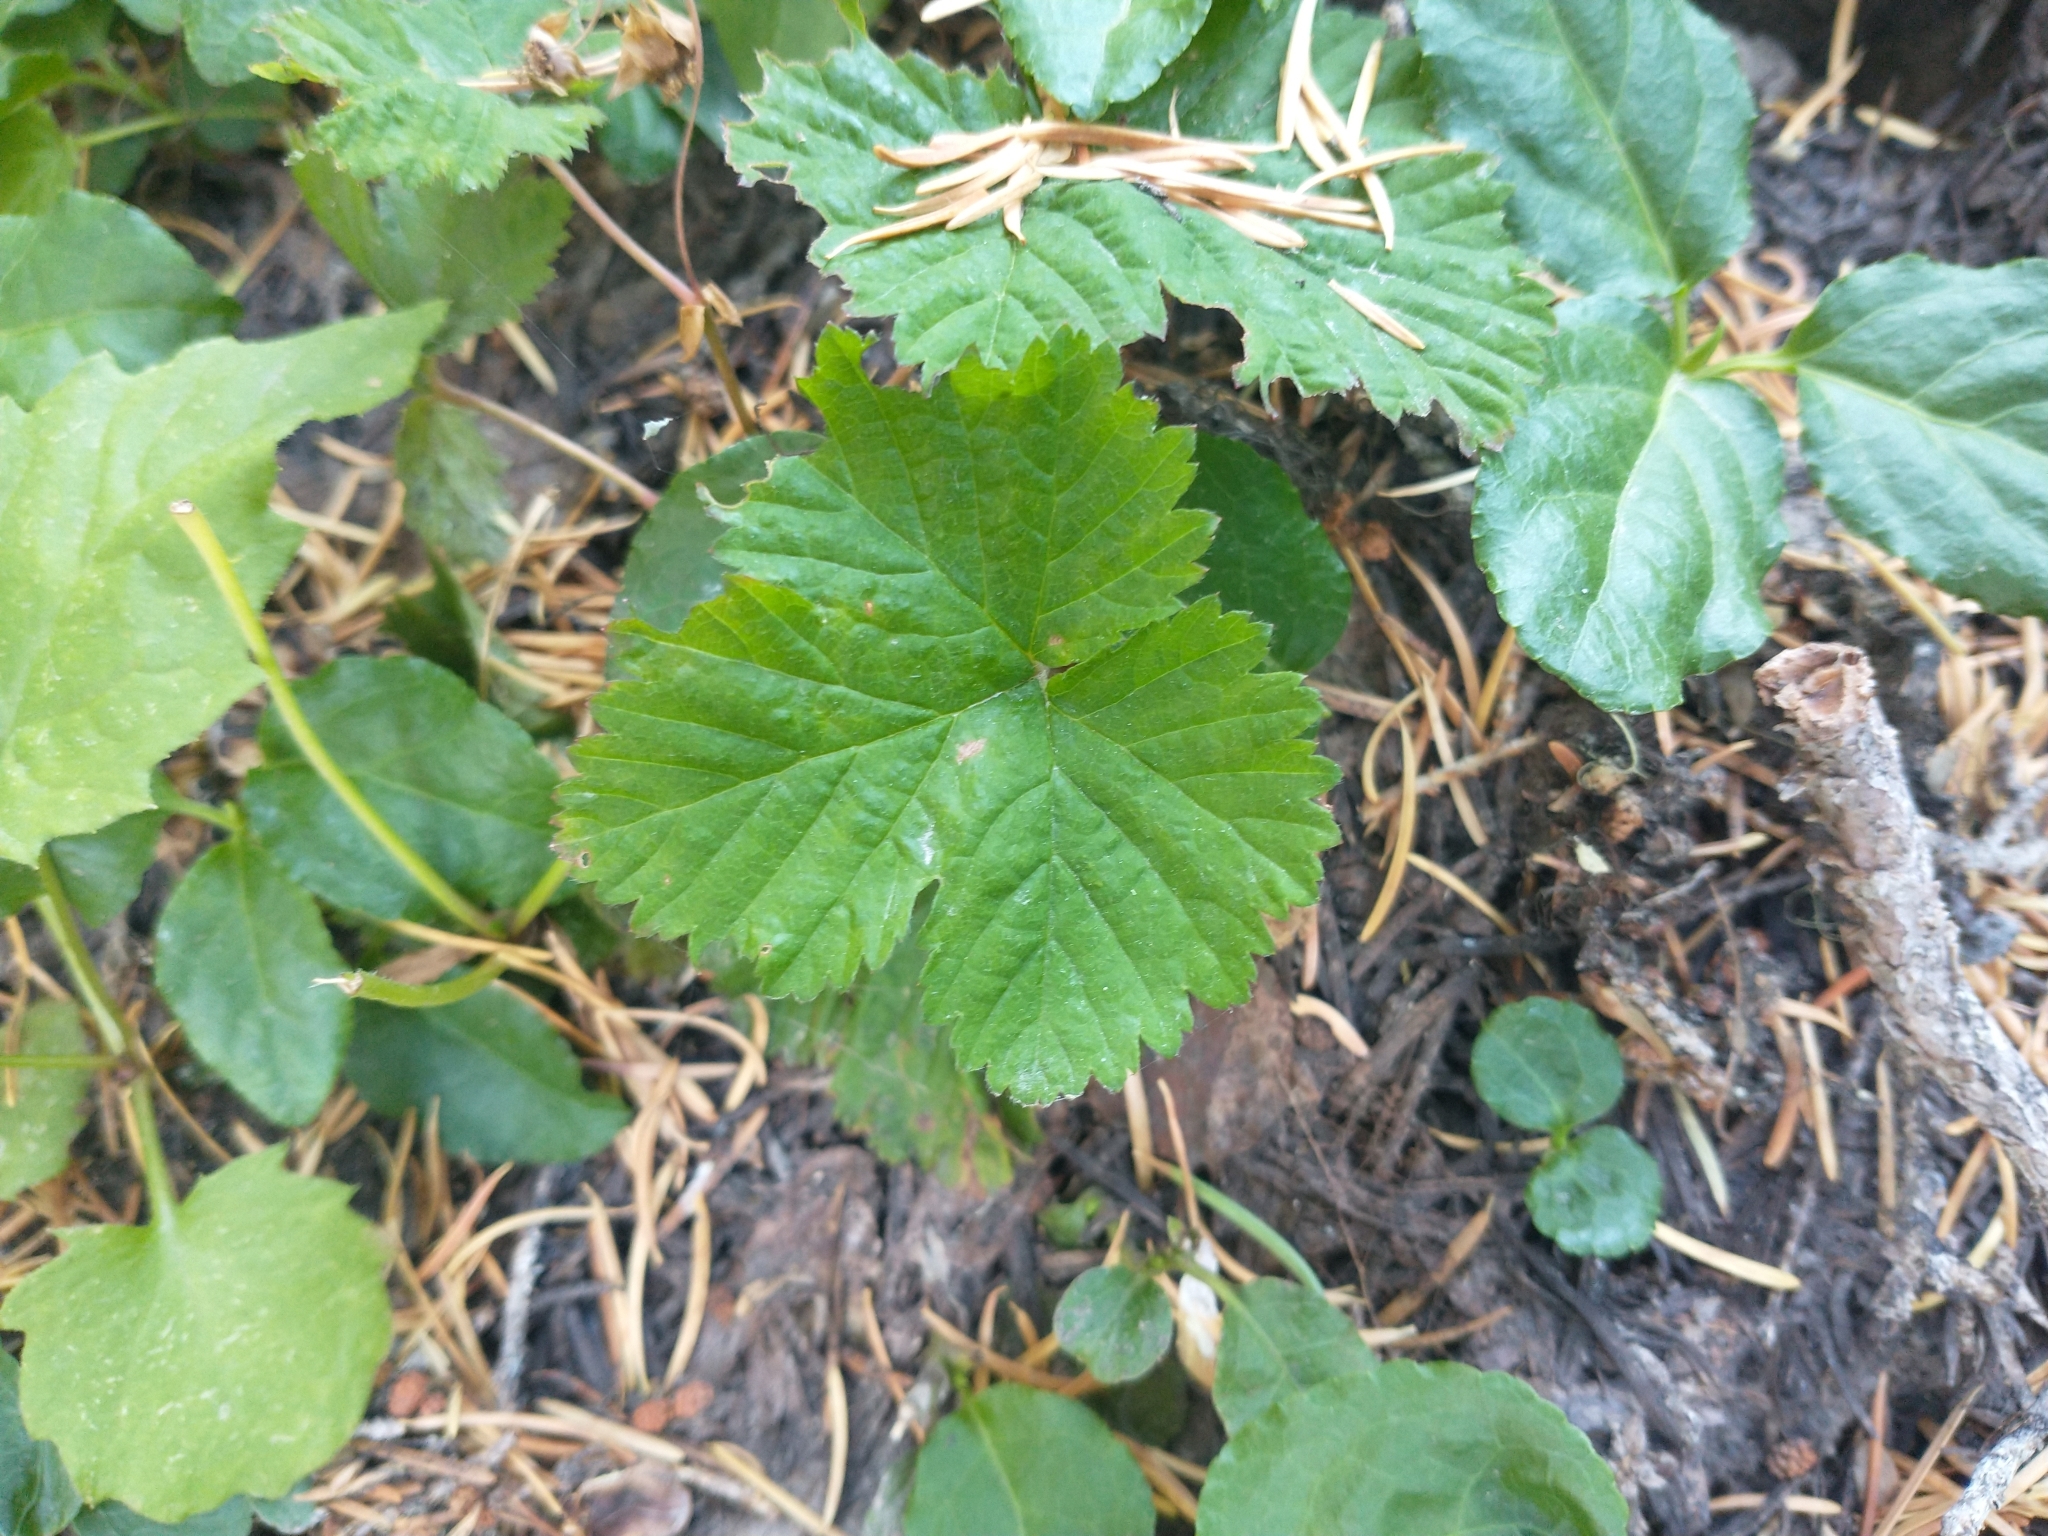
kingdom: Plantae
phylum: Tracheophyta
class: Magnoliopsida
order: Rosales
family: Rosaceae
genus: Rubus
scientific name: Rubus lasiococcus
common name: Dwarf bramble
